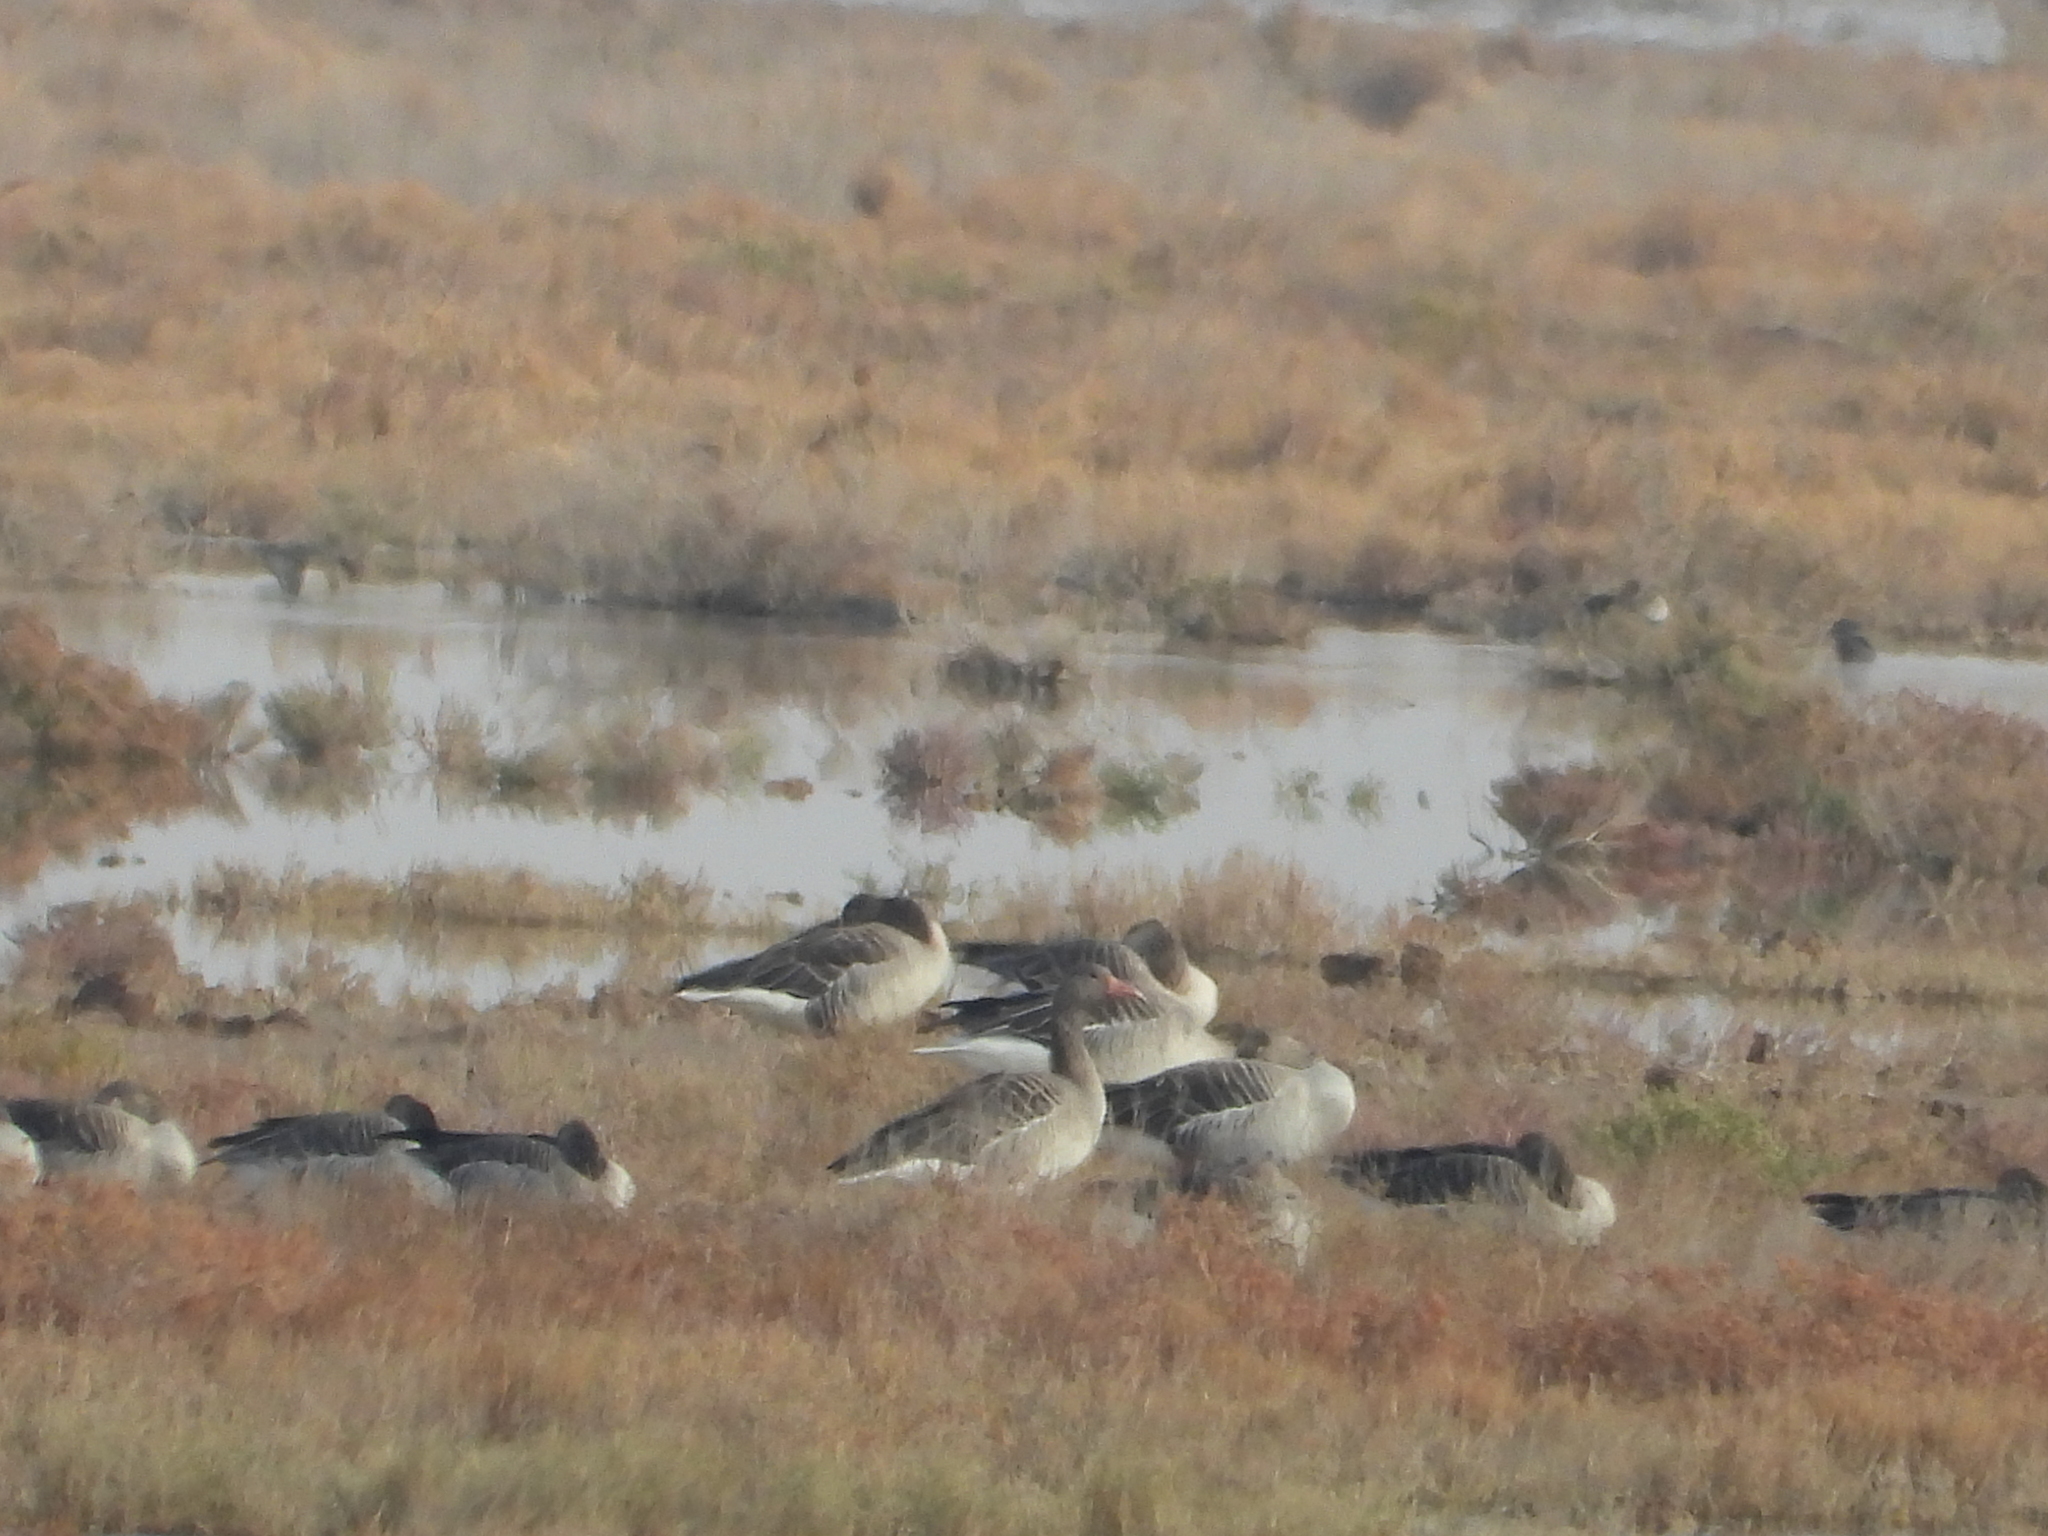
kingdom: Animalia
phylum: Chordata
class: Aves
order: Anseriformes
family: Anatidae
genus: Anser
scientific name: Anser anser
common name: Greylag goose
